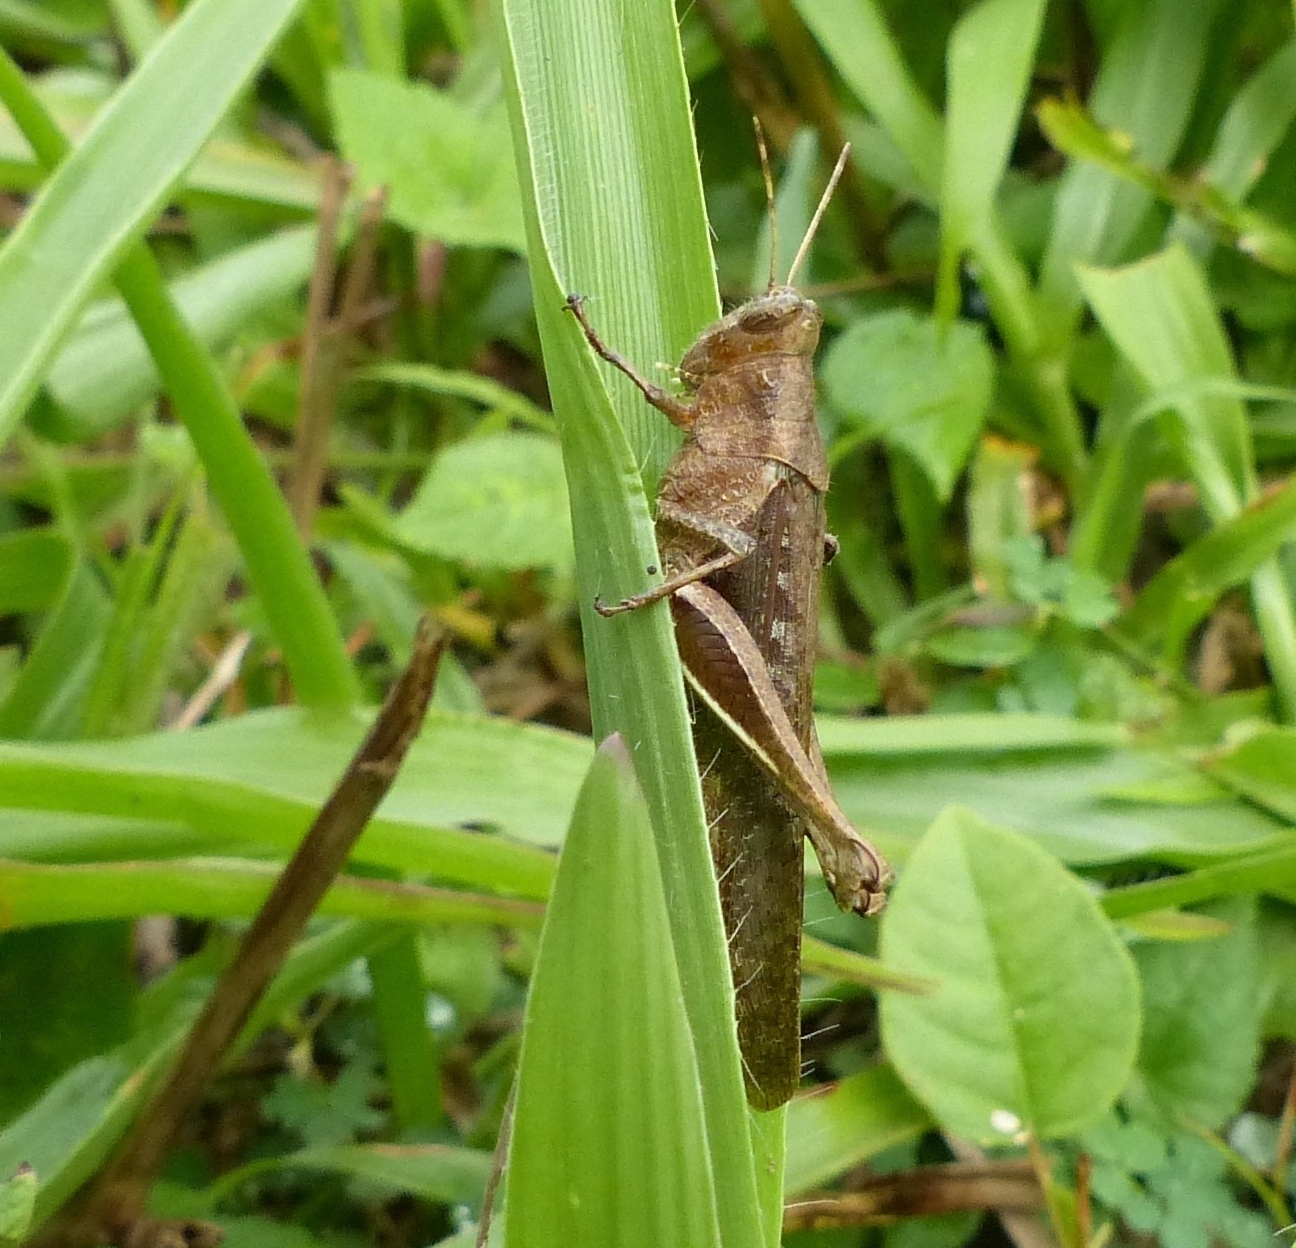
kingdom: Animalia
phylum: Arthropoda
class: Insecta
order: Orthoptera
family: Acrididae
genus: Abracris
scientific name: Abracris flavolineata
